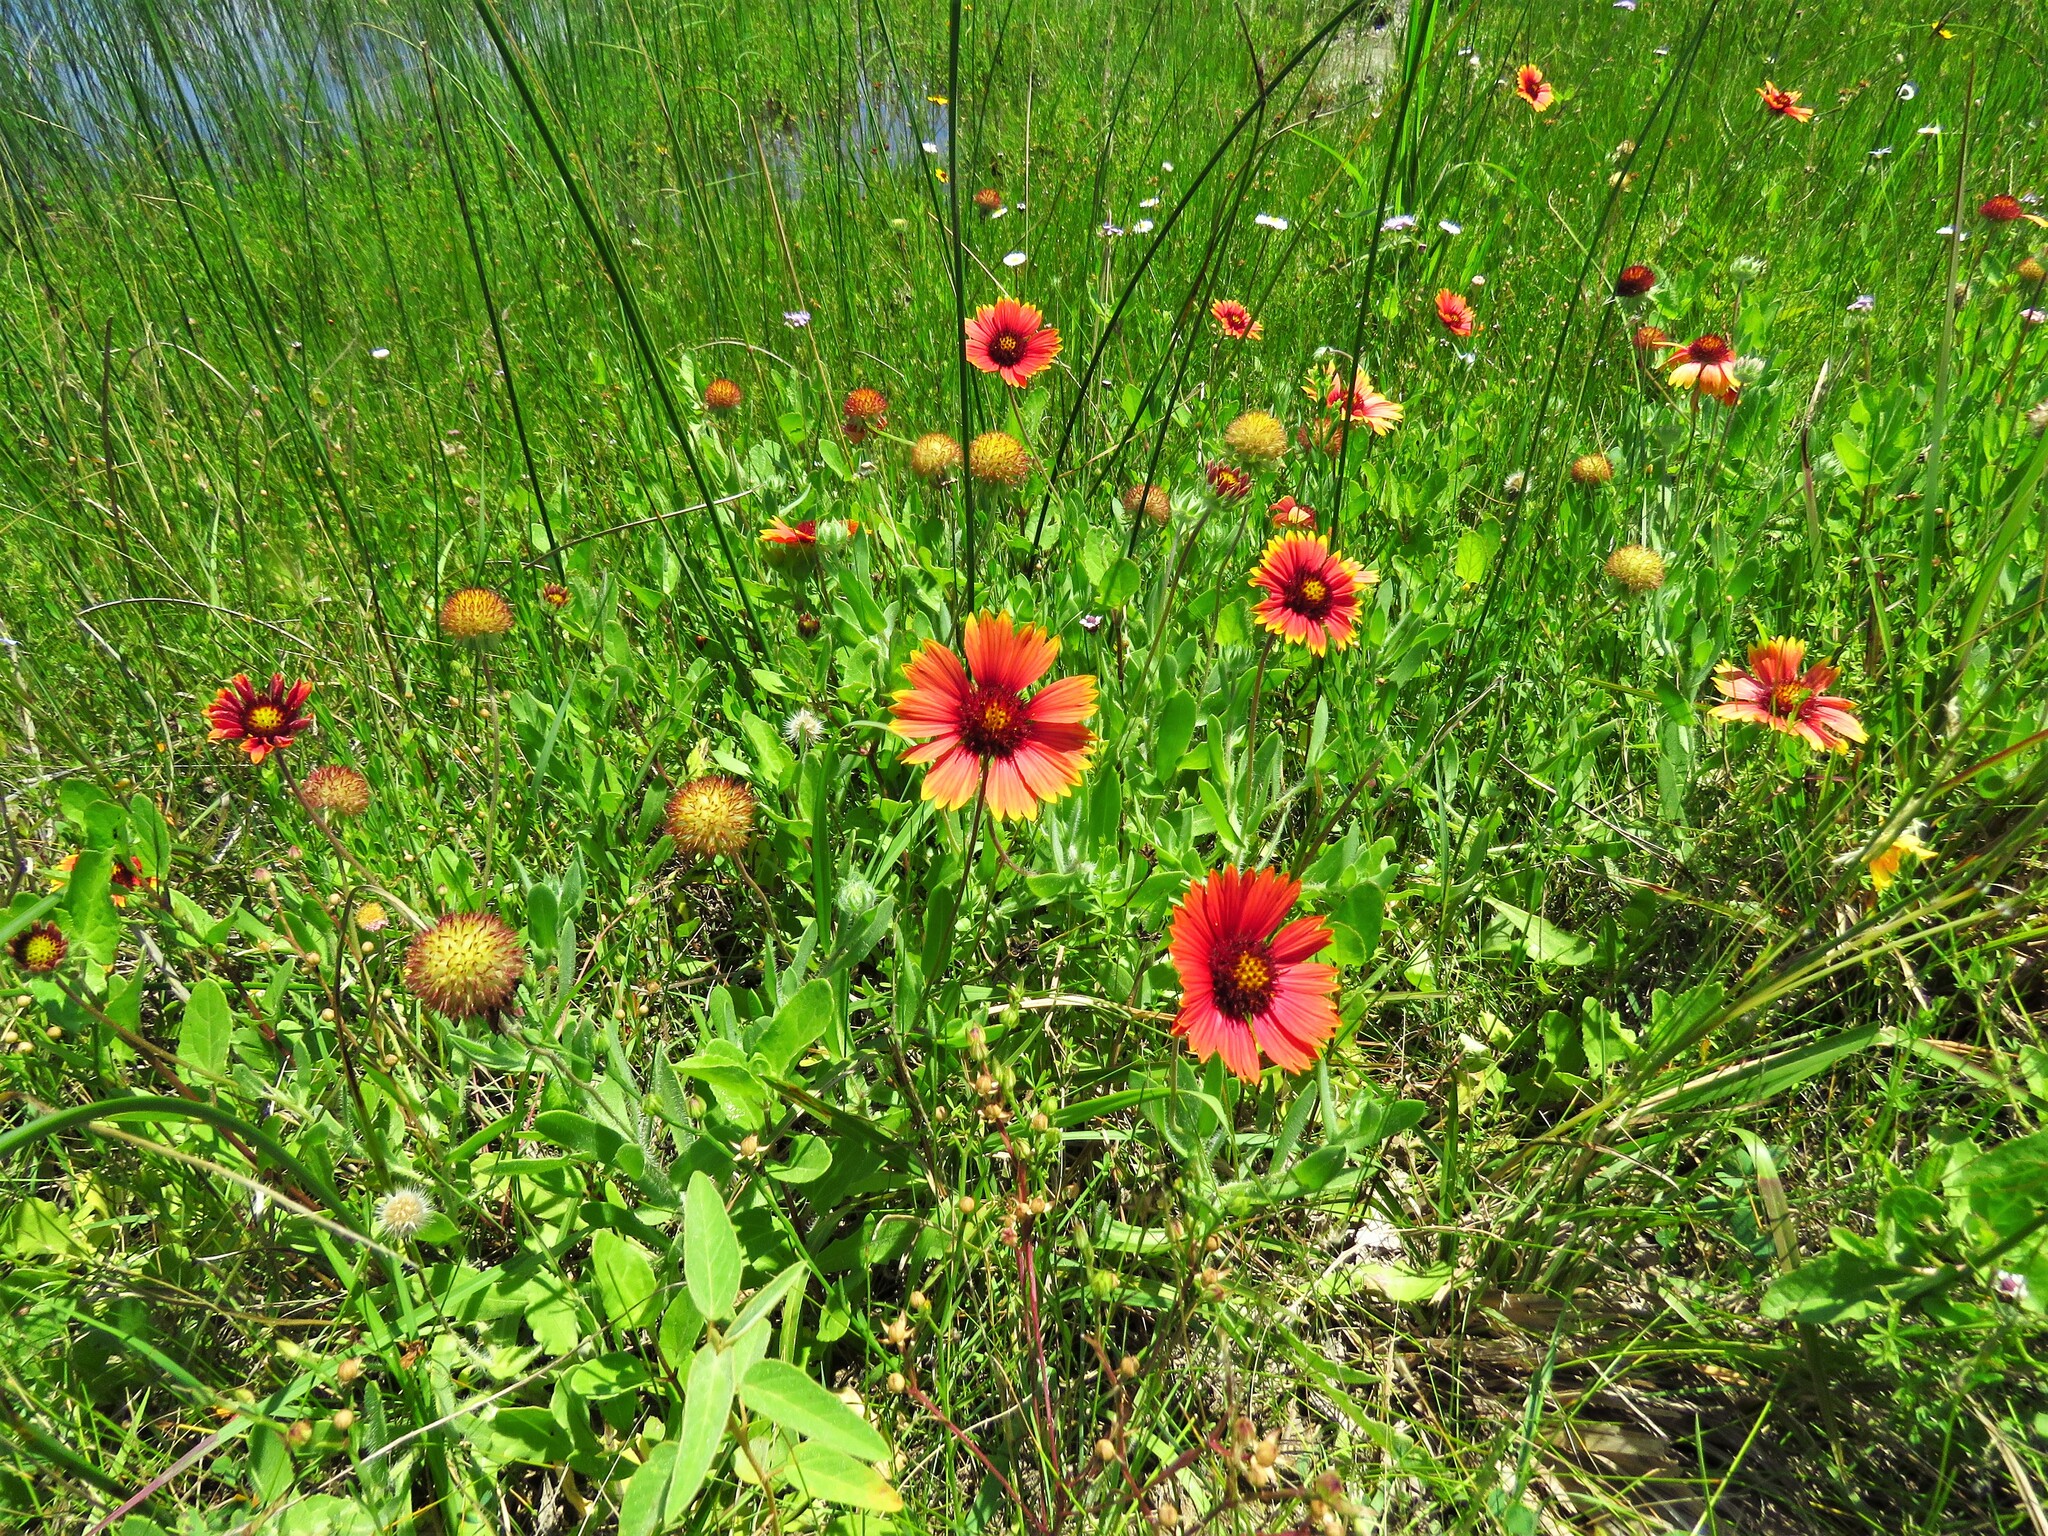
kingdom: Plantae
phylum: Tracheophyta
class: Magnoliopsida
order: Asterales
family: Asteraceae
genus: Gaillardia
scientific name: Gaillardia pulchella
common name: Firewheel
